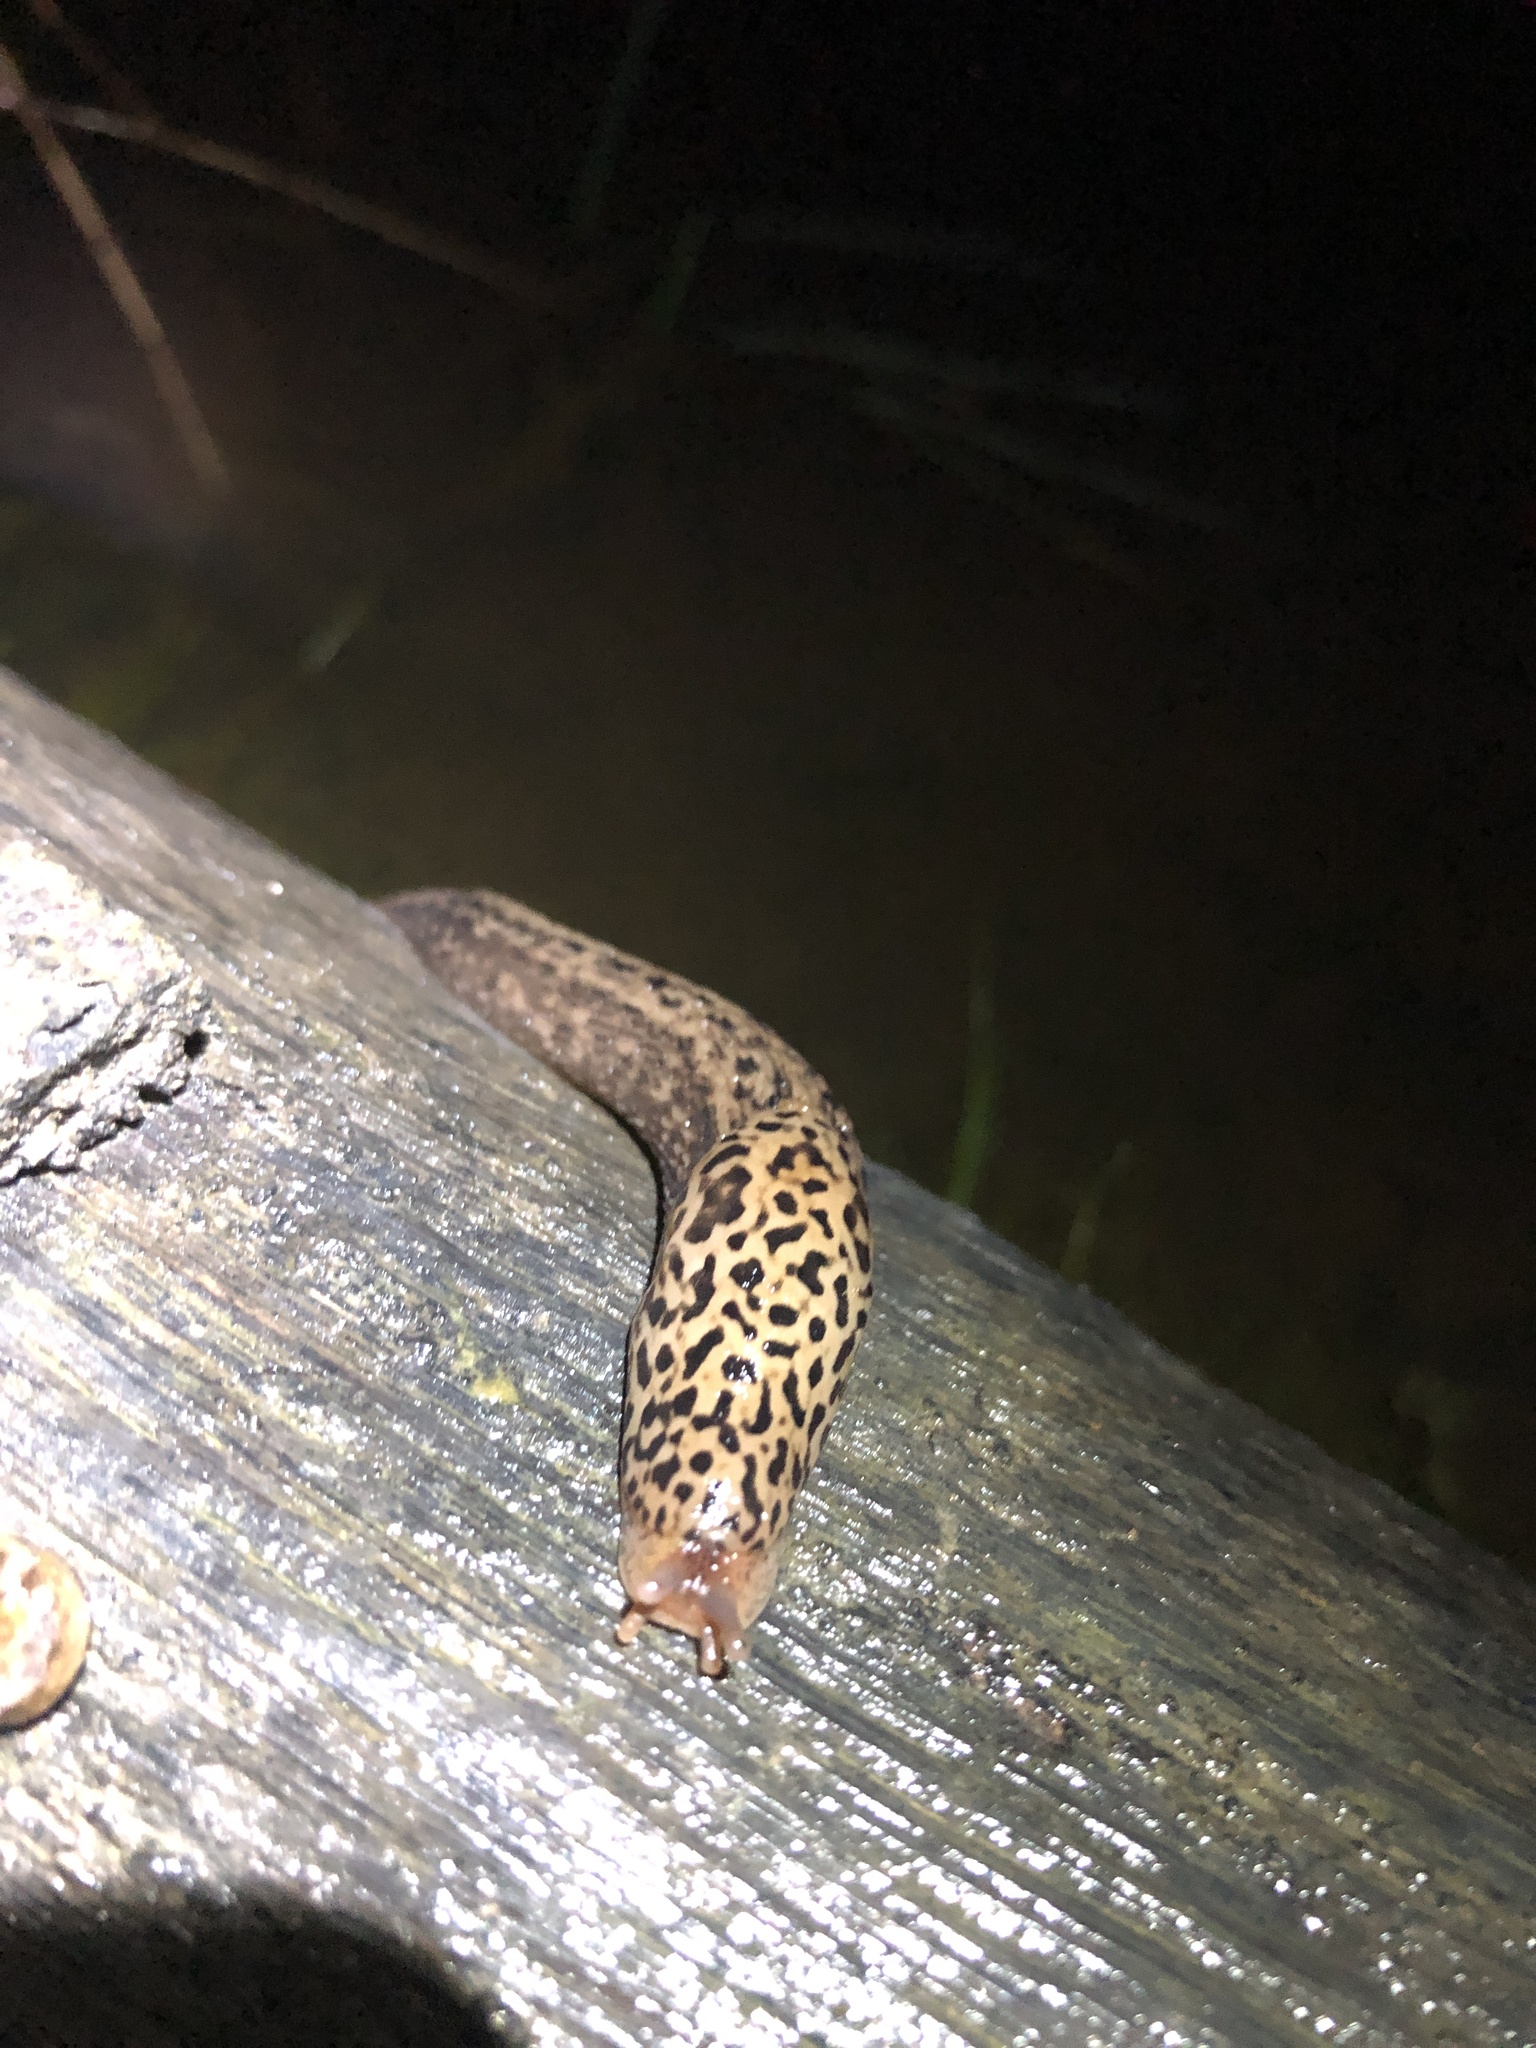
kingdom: Animalia
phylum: Mollusca
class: Gastropoda
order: Stylommatophora
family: Limacidae
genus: Limax
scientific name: Limax maximus
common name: Great grey slug
